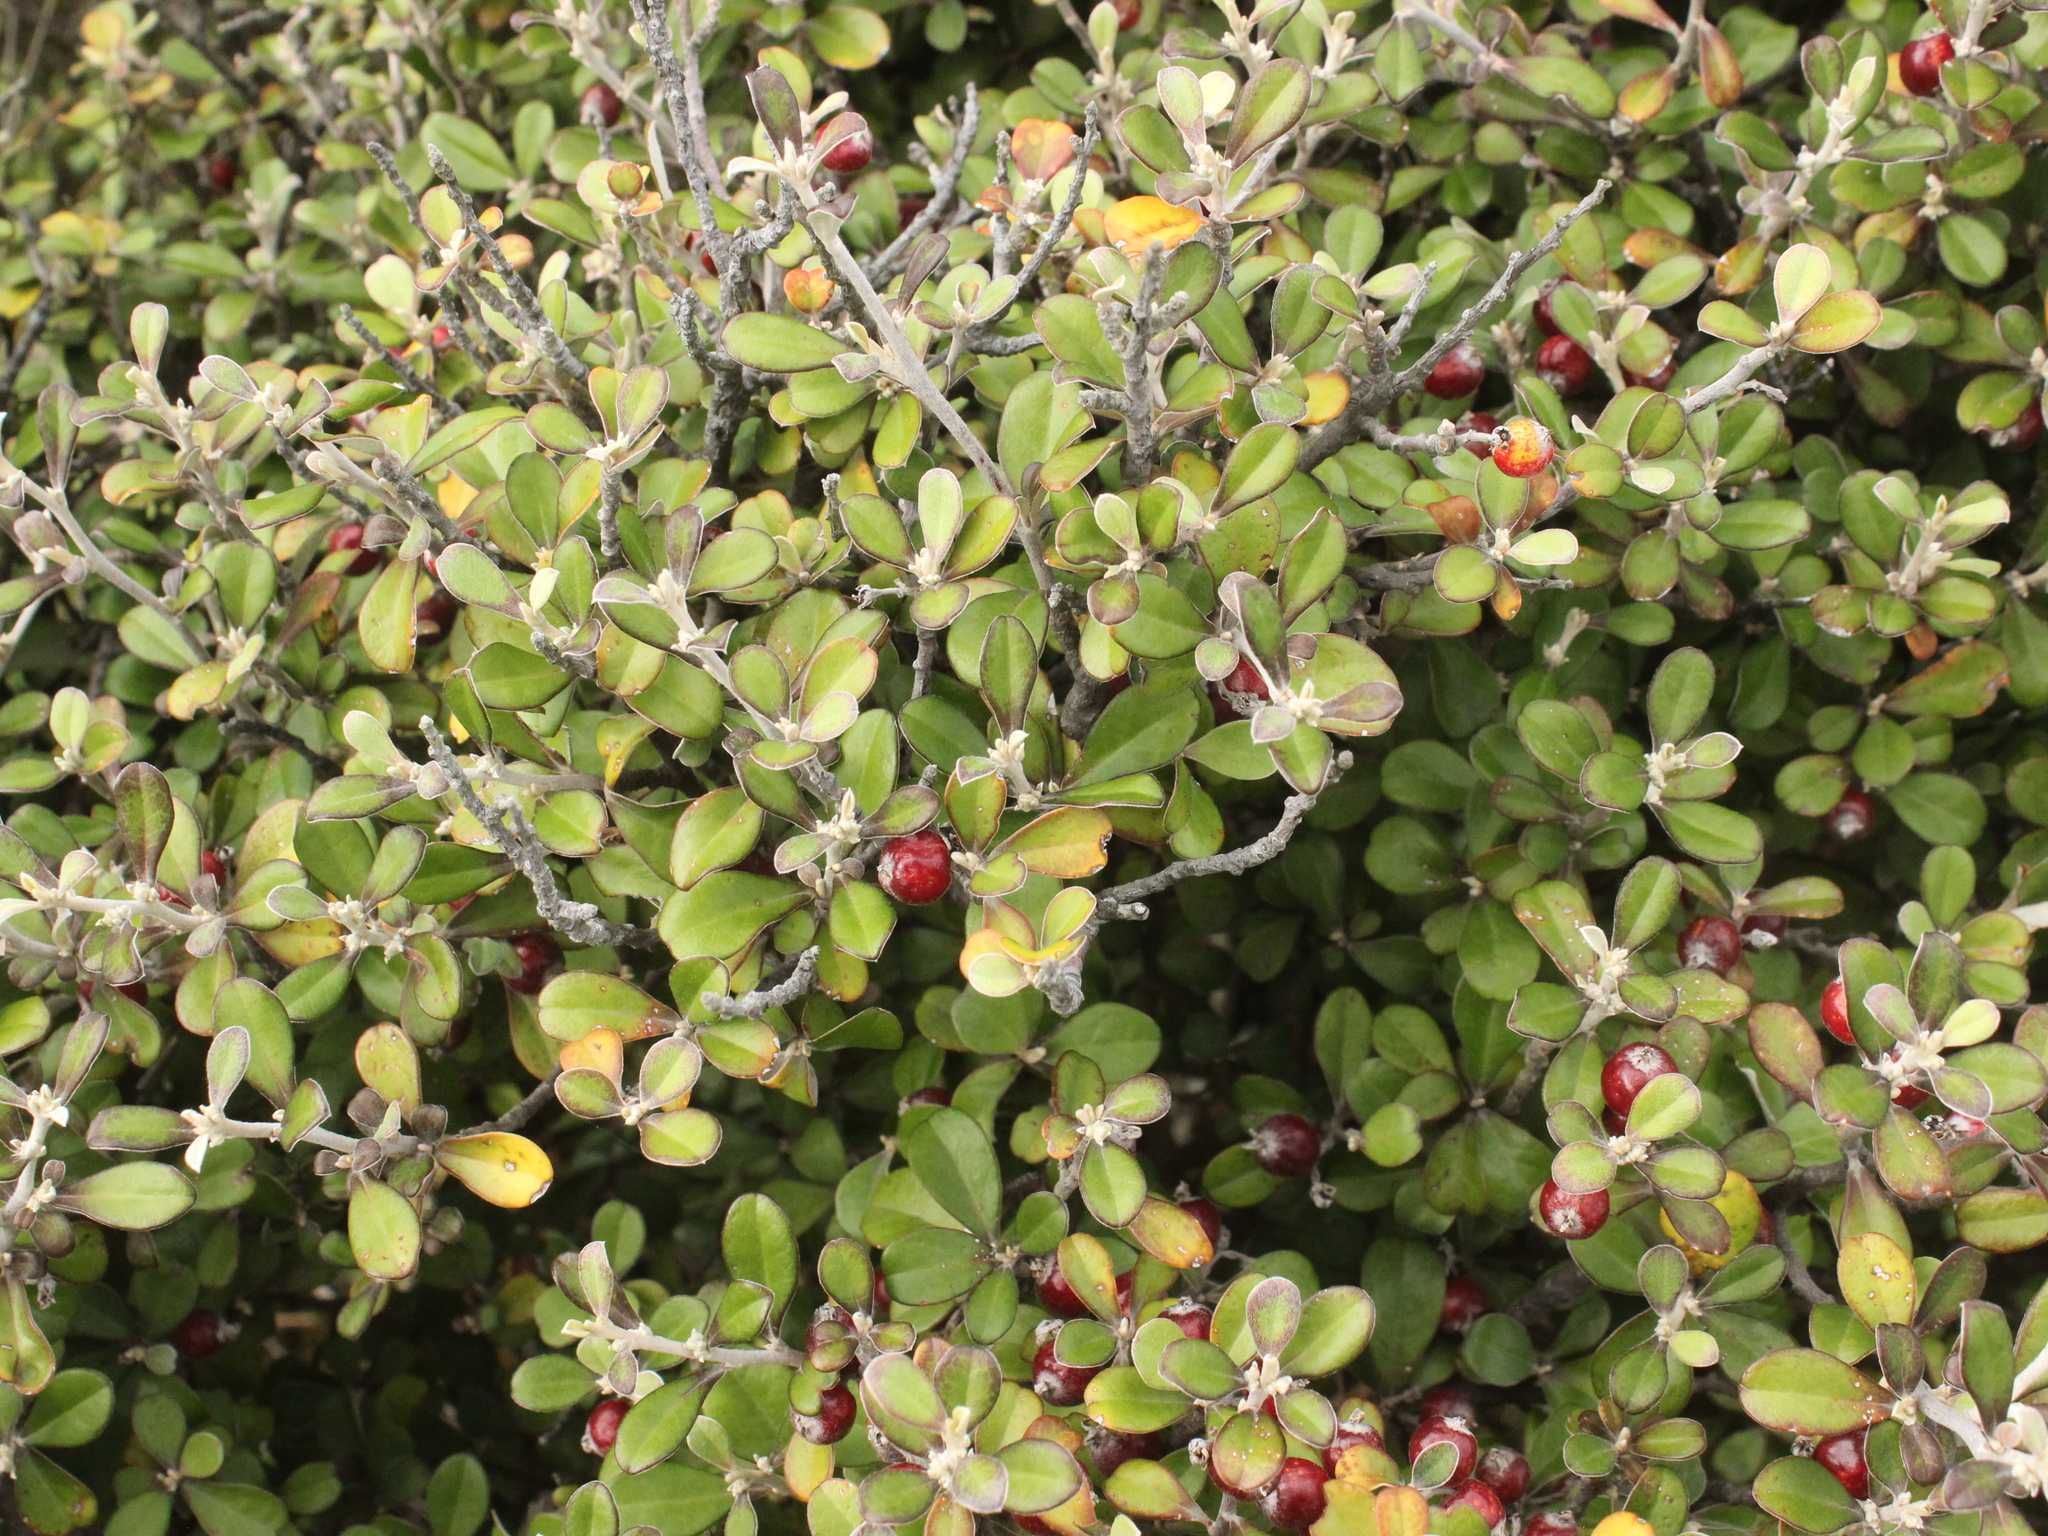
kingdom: Plantae
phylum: Tracheophyta
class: Magnoliopsida
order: Asterales
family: Argophyllaceae
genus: Corokia
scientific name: Corokia virgata
